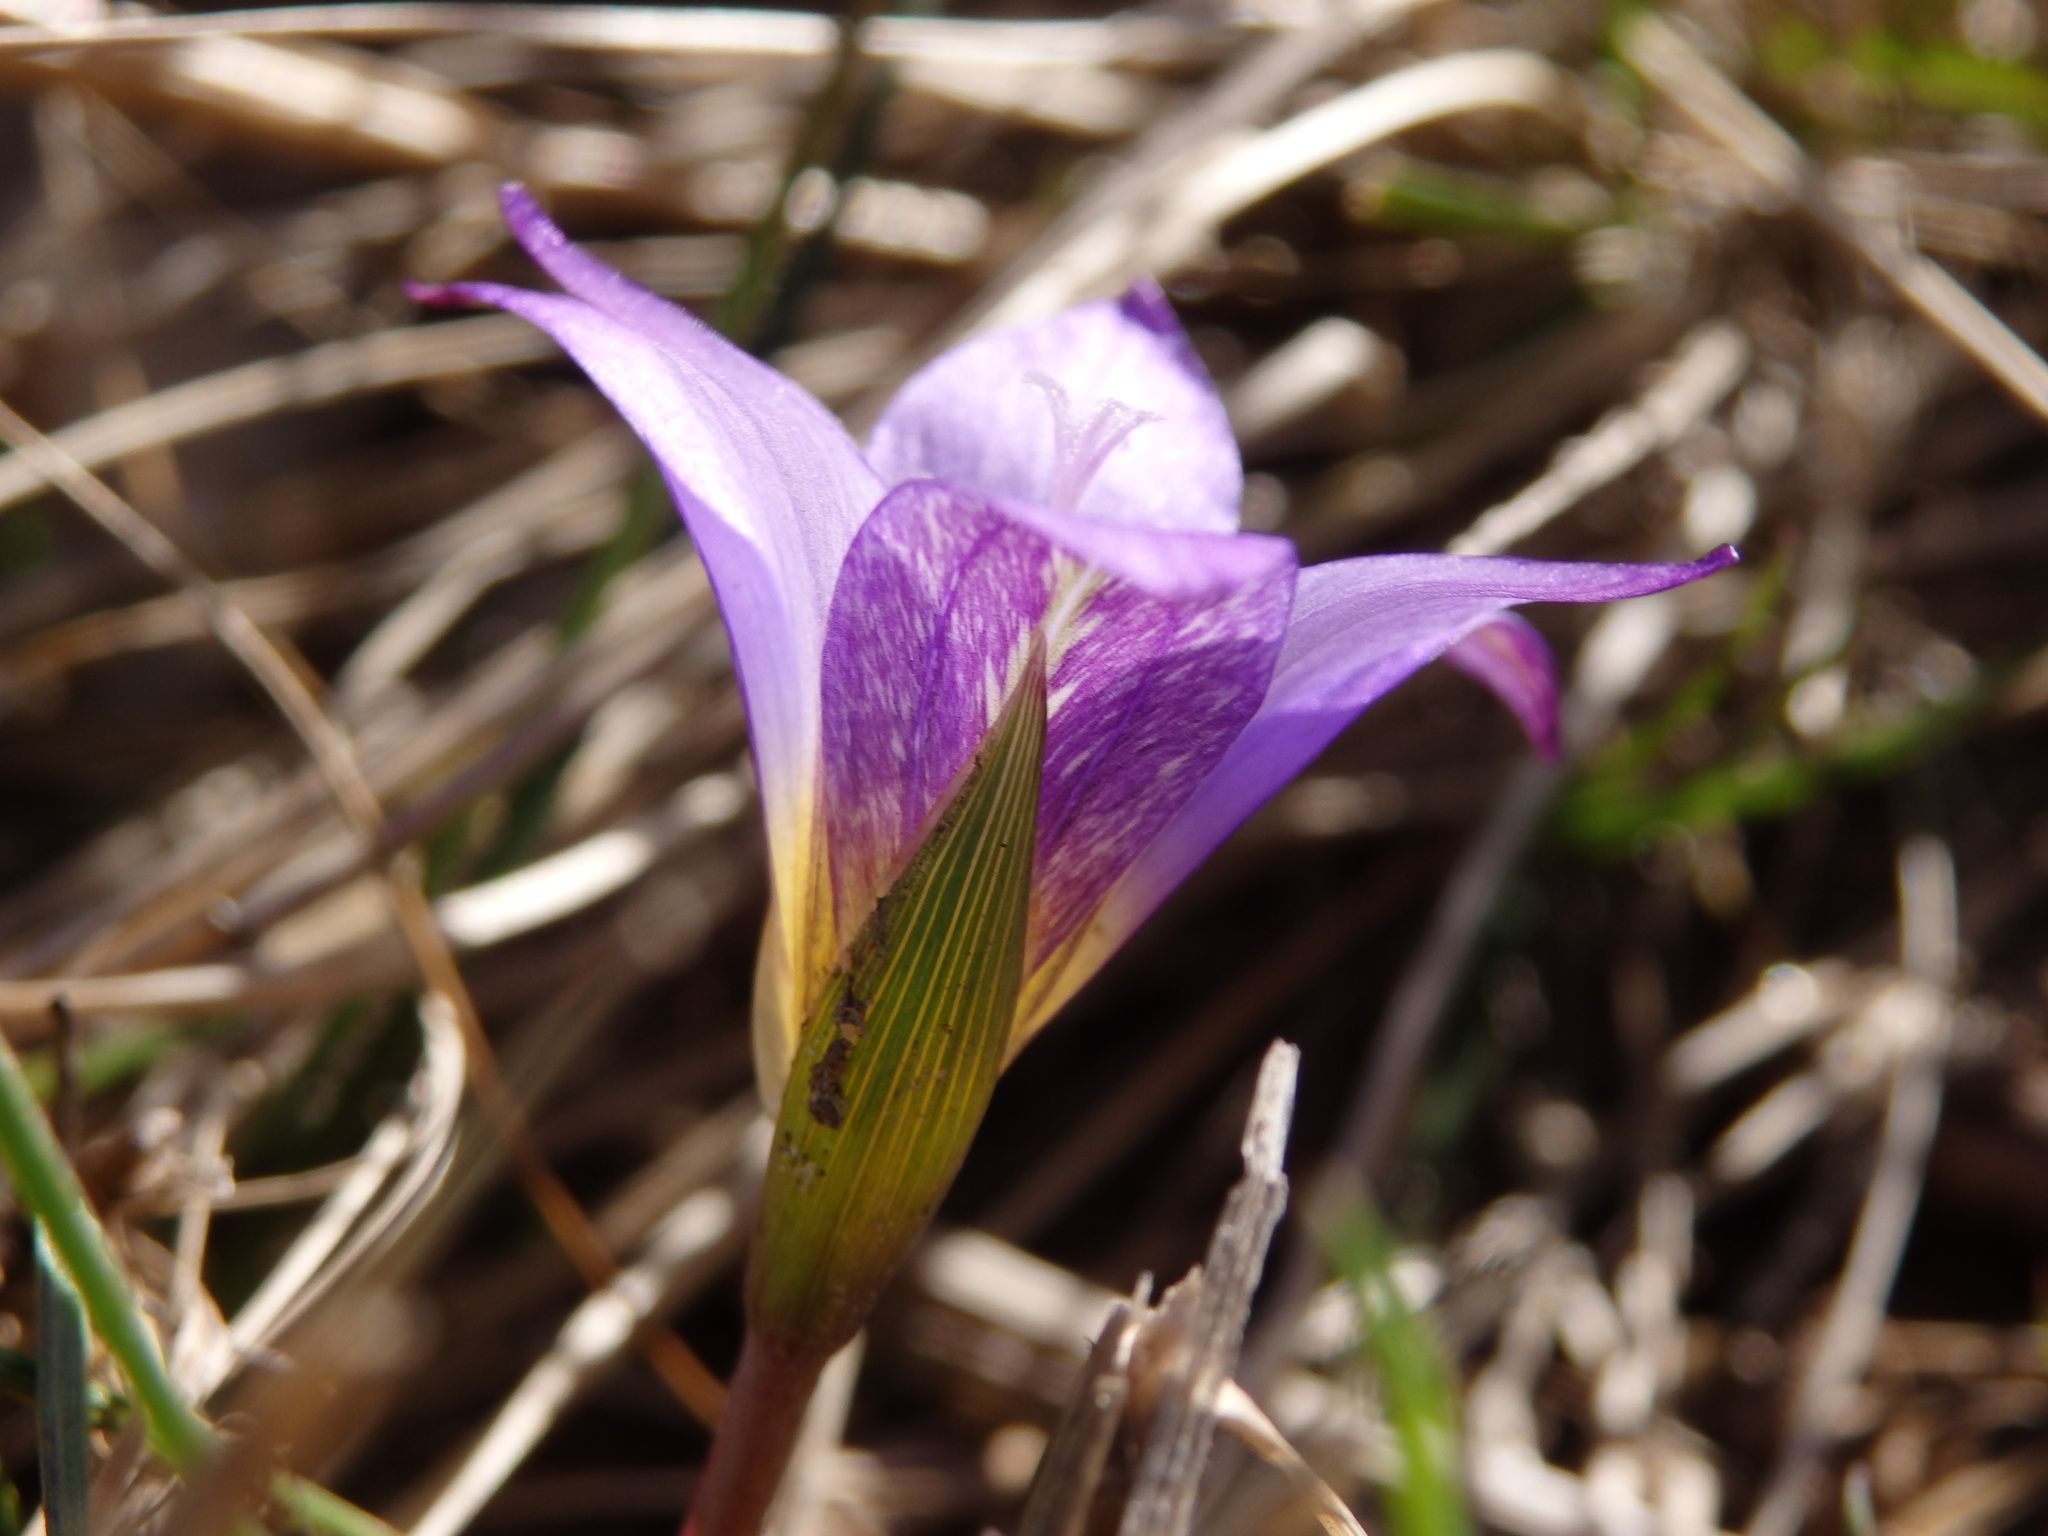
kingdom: Plantae
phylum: Tracheophyta
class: Liliopsida
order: Asparagales
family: Iridaceae
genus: Romulea
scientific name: Romulea bulbocodium
